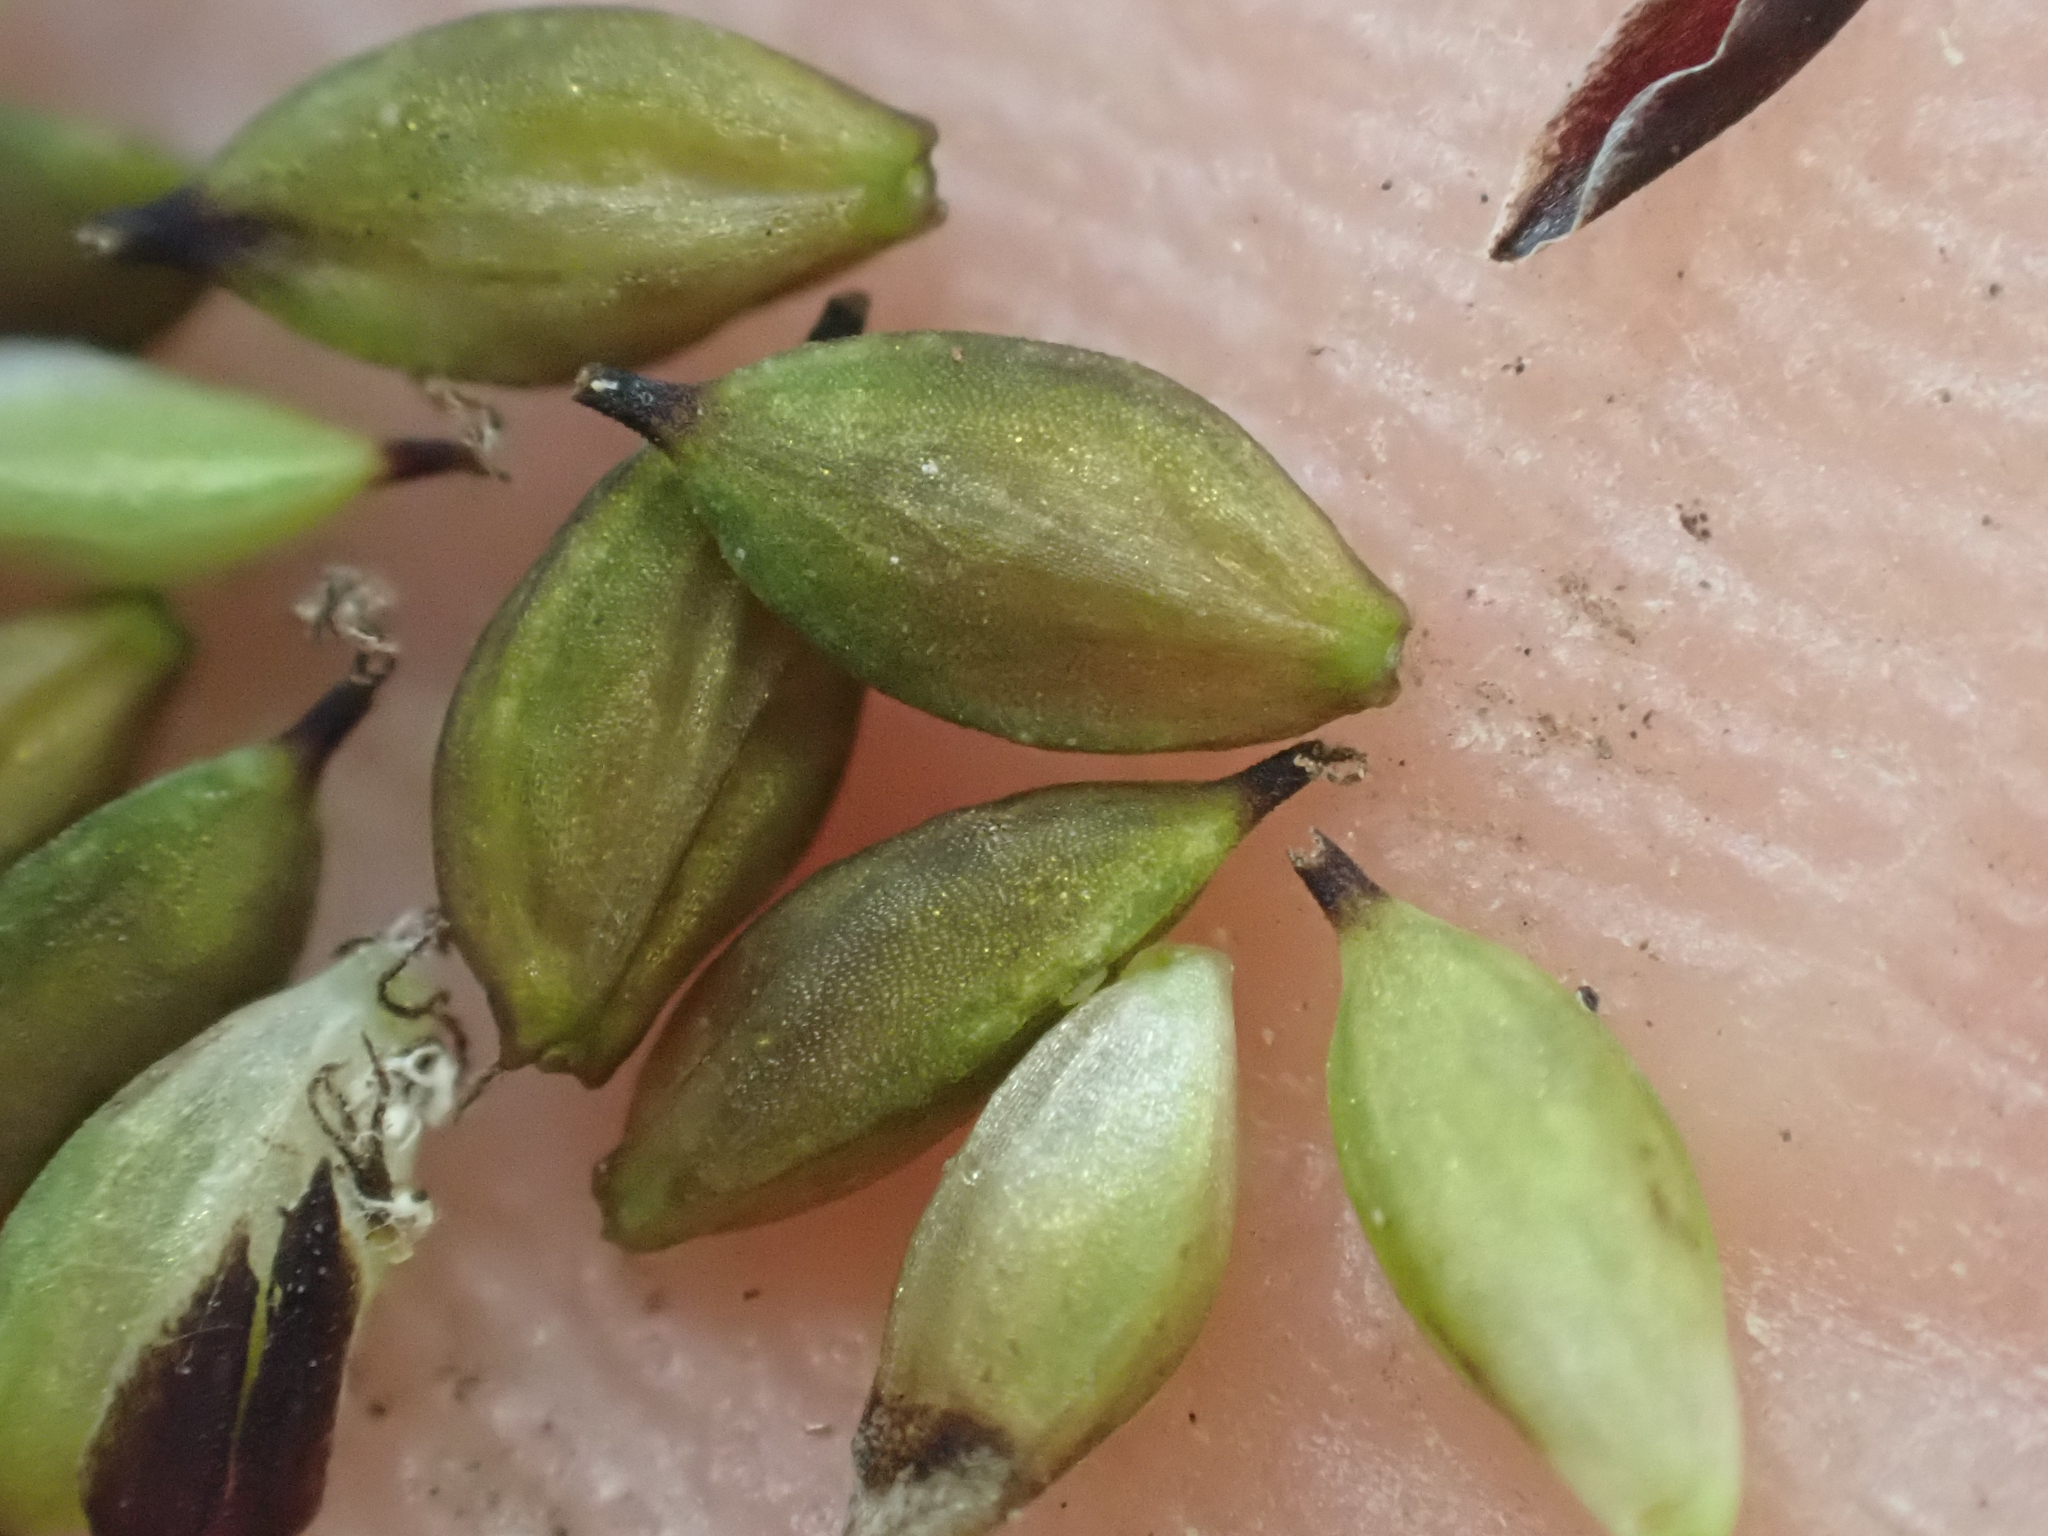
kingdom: Plantae
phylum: Tracheophyta
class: Liliopsida
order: Poales
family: Cyperaceae
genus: Carex
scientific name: Carex media
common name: Alpine sedge
